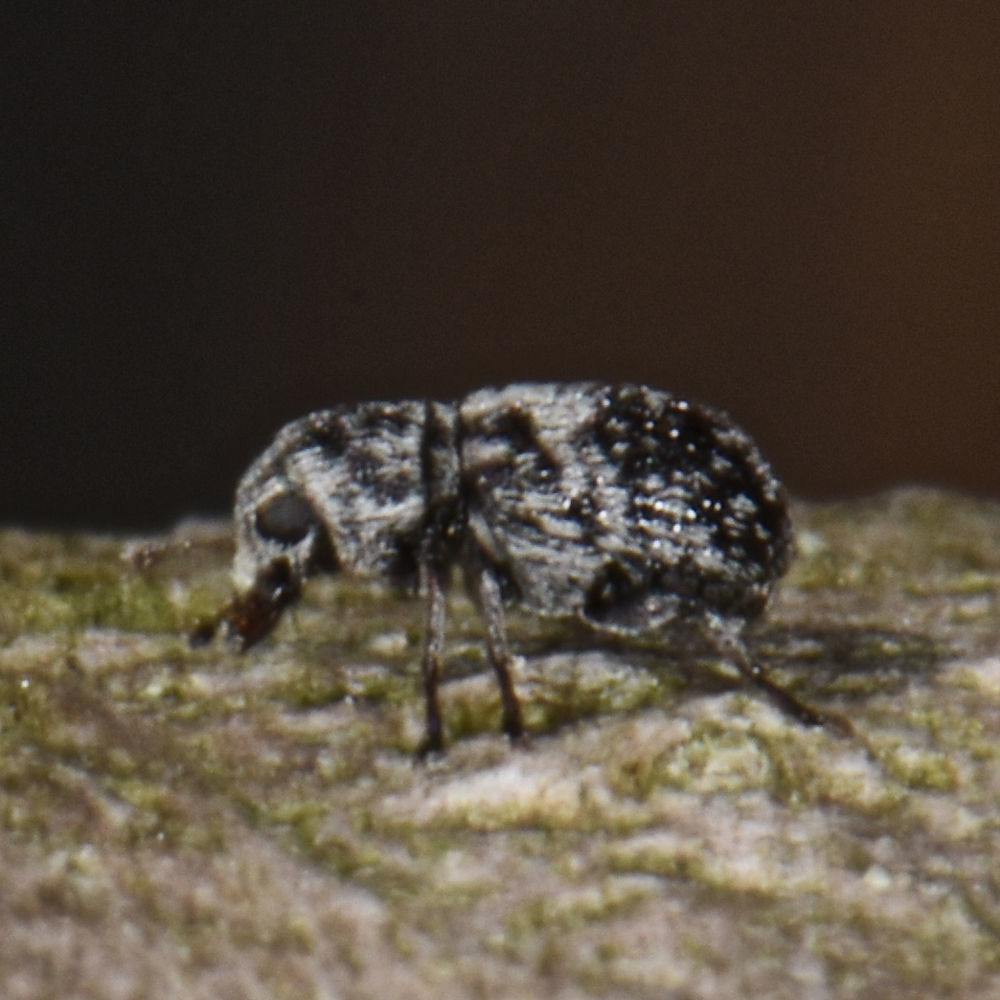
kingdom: Animalia
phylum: Arthropoda
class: Insecta
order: Coleoptera
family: Anthribidae
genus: Ormiscus
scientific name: Ormiscus saltator
